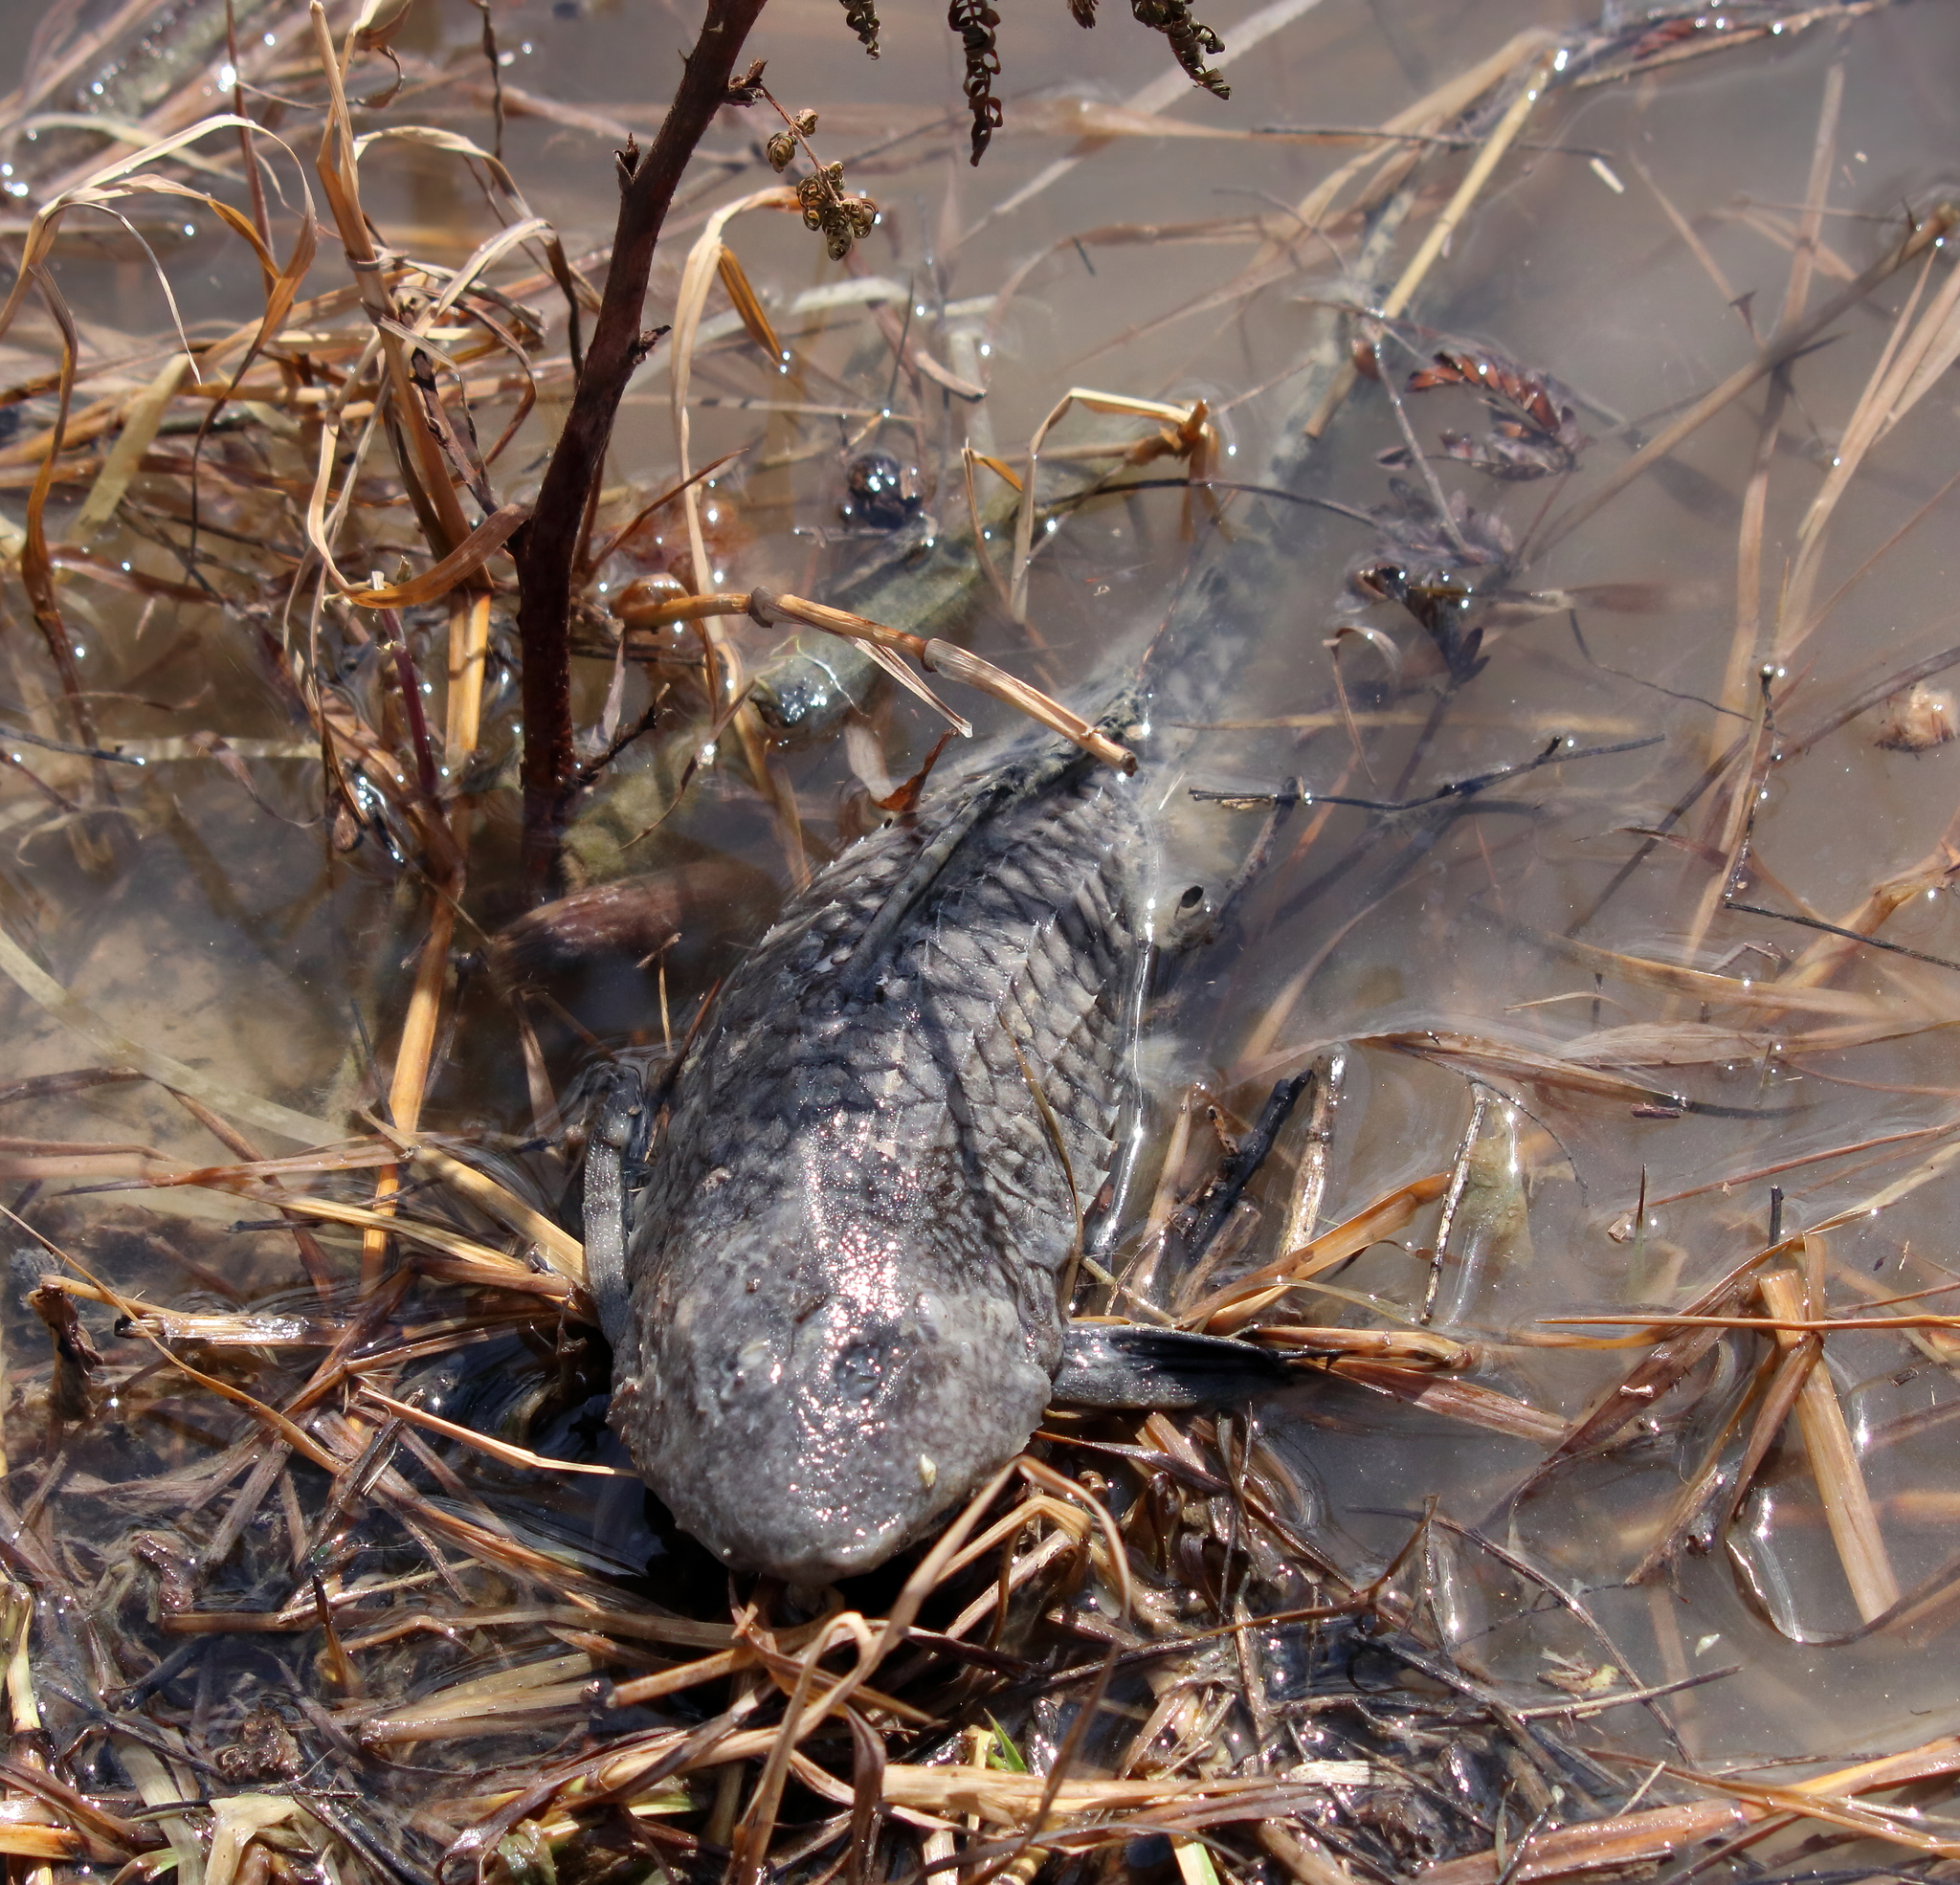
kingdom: Animalia
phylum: Chordata
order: Siluriformes
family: Loricariidae
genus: Pterygoplichthys
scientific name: Pterygoplichthys
